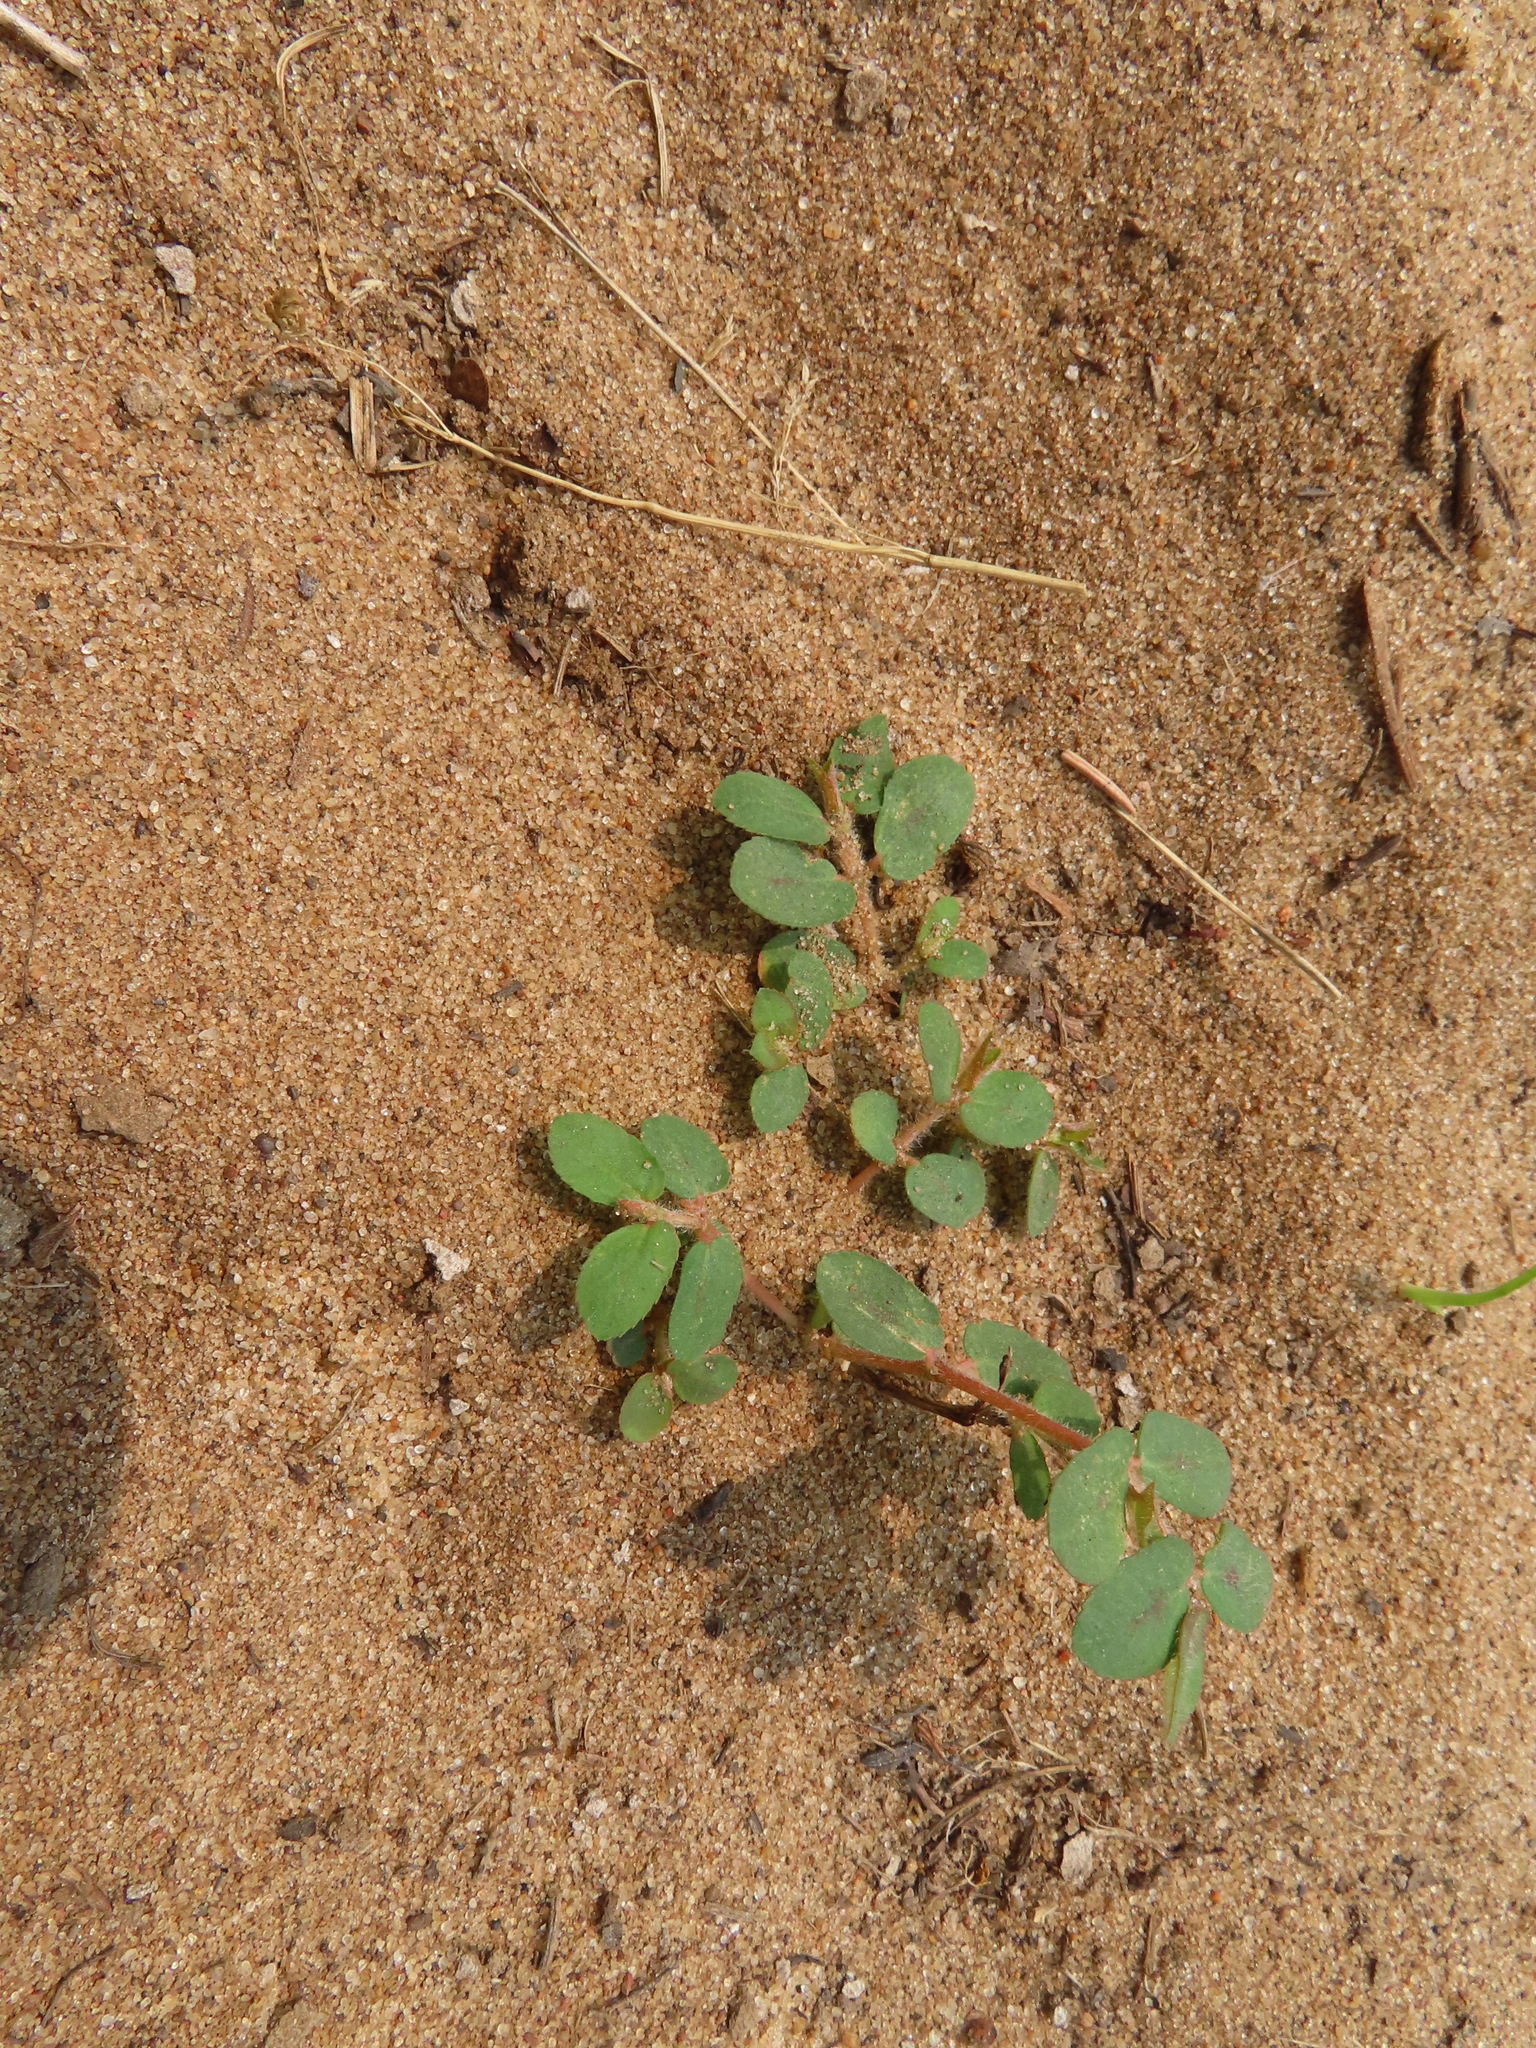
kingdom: Plantae
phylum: Tracheophyta
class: Magnoliopsida
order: Malpighiales
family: Euphorbiaceae
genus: Euphorbia
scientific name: Euphorbia maculata
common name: Spotted spurge
